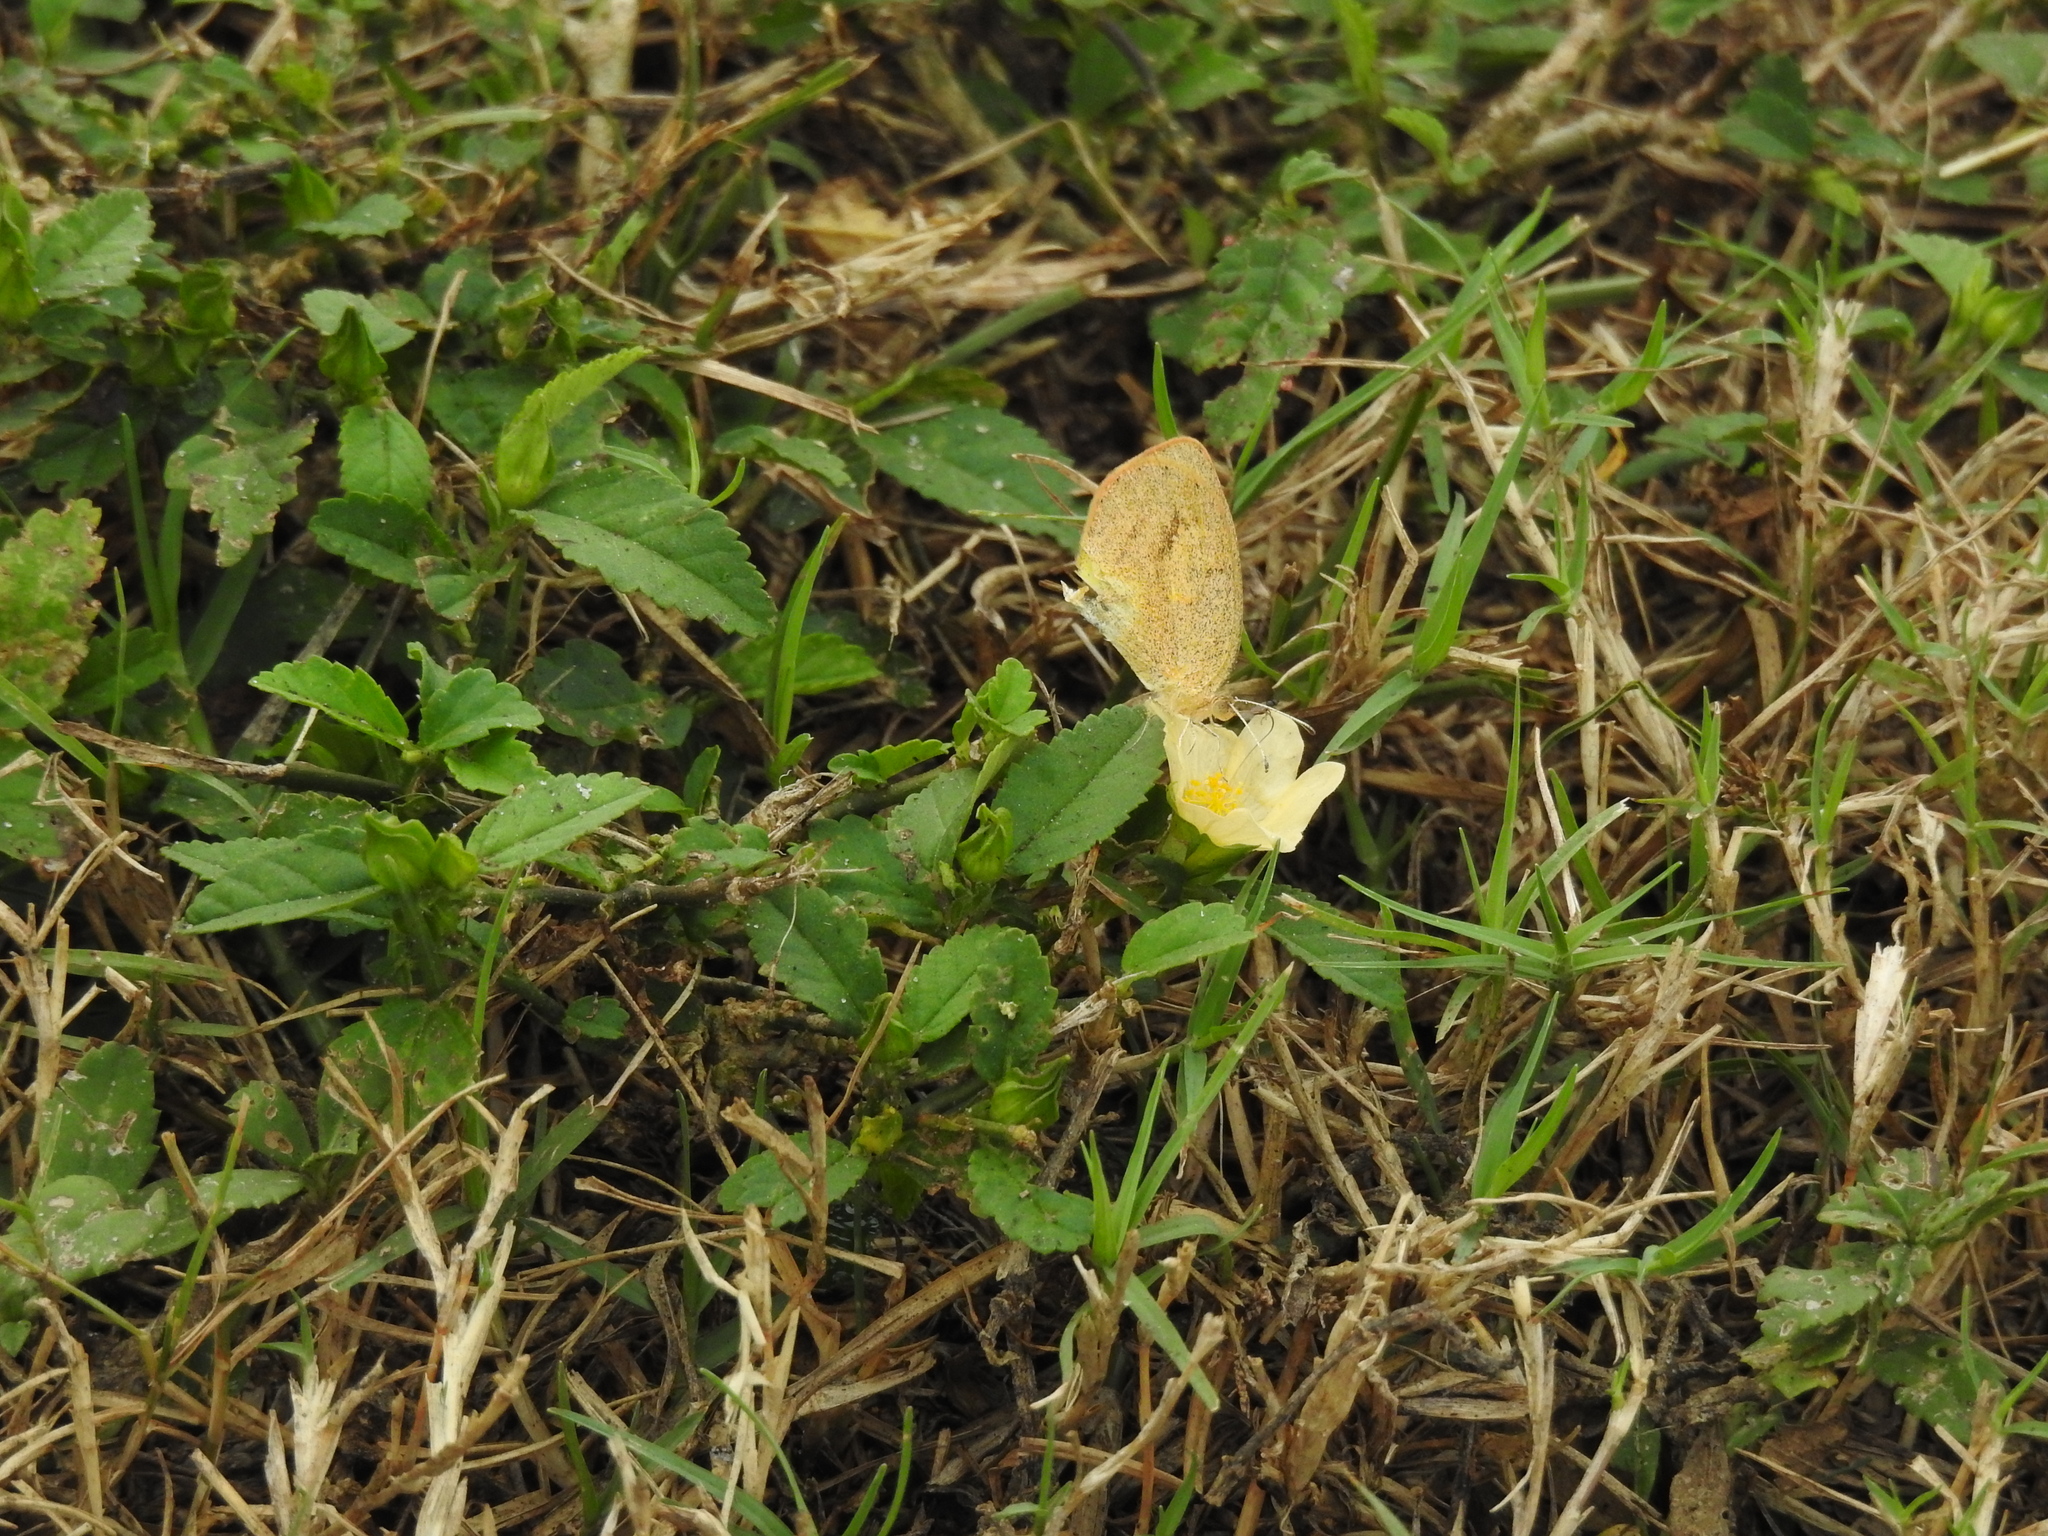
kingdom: Animalia
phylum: Arthropoda
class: Insecta
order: Lepidoptera
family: Pieridae
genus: Eurema
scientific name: Eurema daira
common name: Barred sulphur
